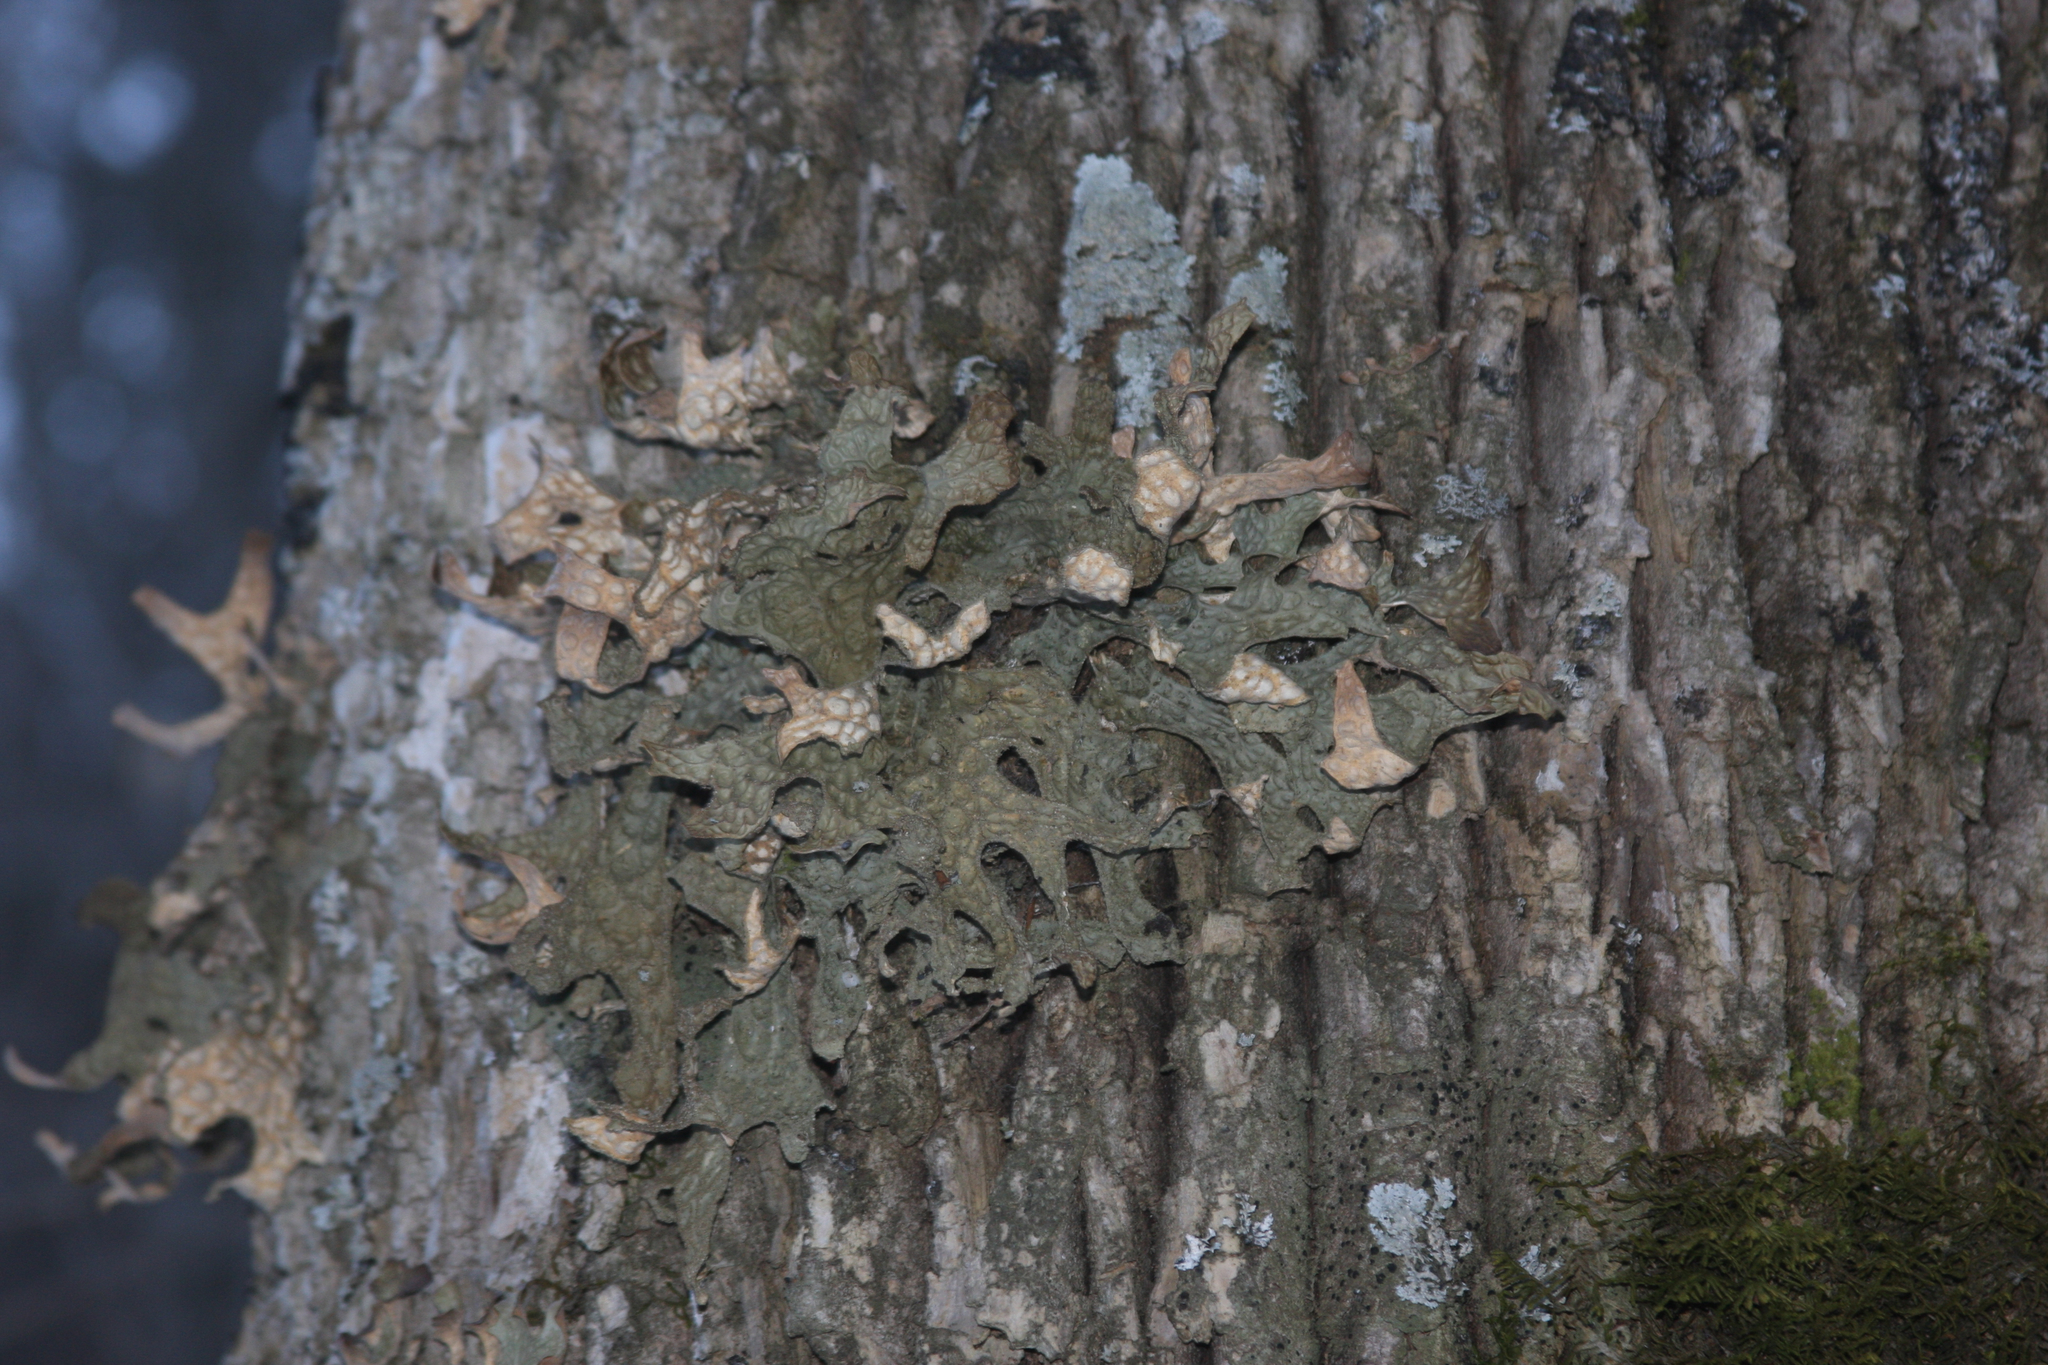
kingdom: Fungi
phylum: Ascomycota
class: Lecanoromycetes
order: Peltigerales
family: Lobariaceae
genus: Lobaria
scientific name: Lobaria pulmonaria
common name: Lungwort
